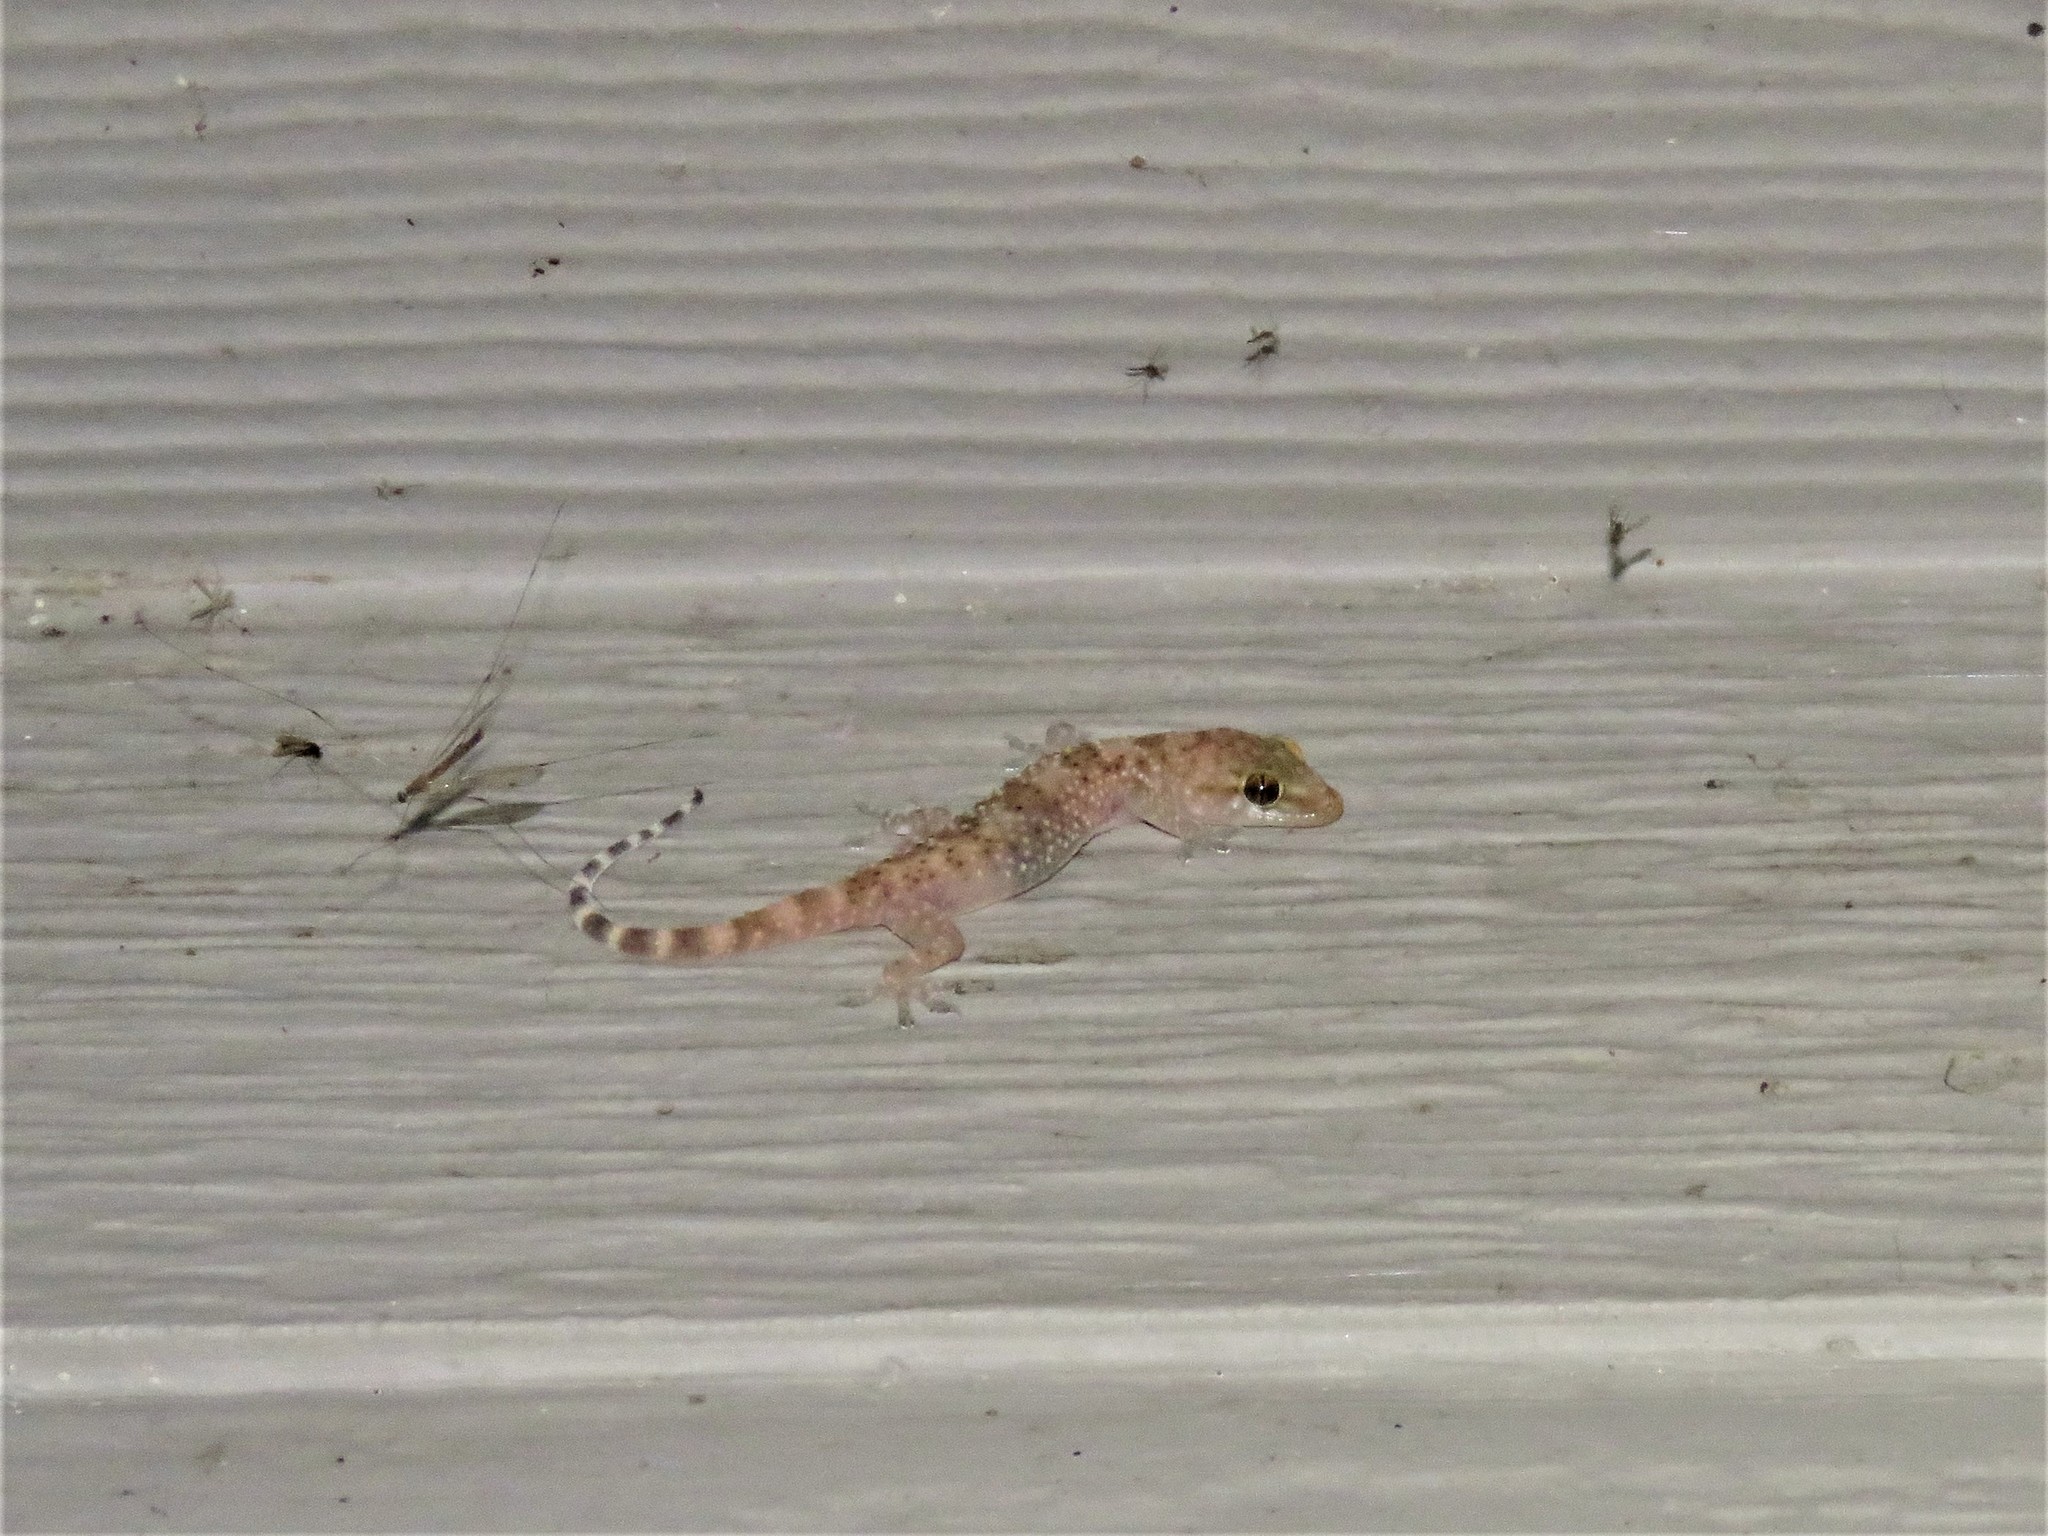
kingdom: Animalia
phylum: Chordata
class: Squamata
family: Gekkonidae
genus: Hemidactylus
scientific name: Hemidactylus turcicus
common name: Turkish gecko
